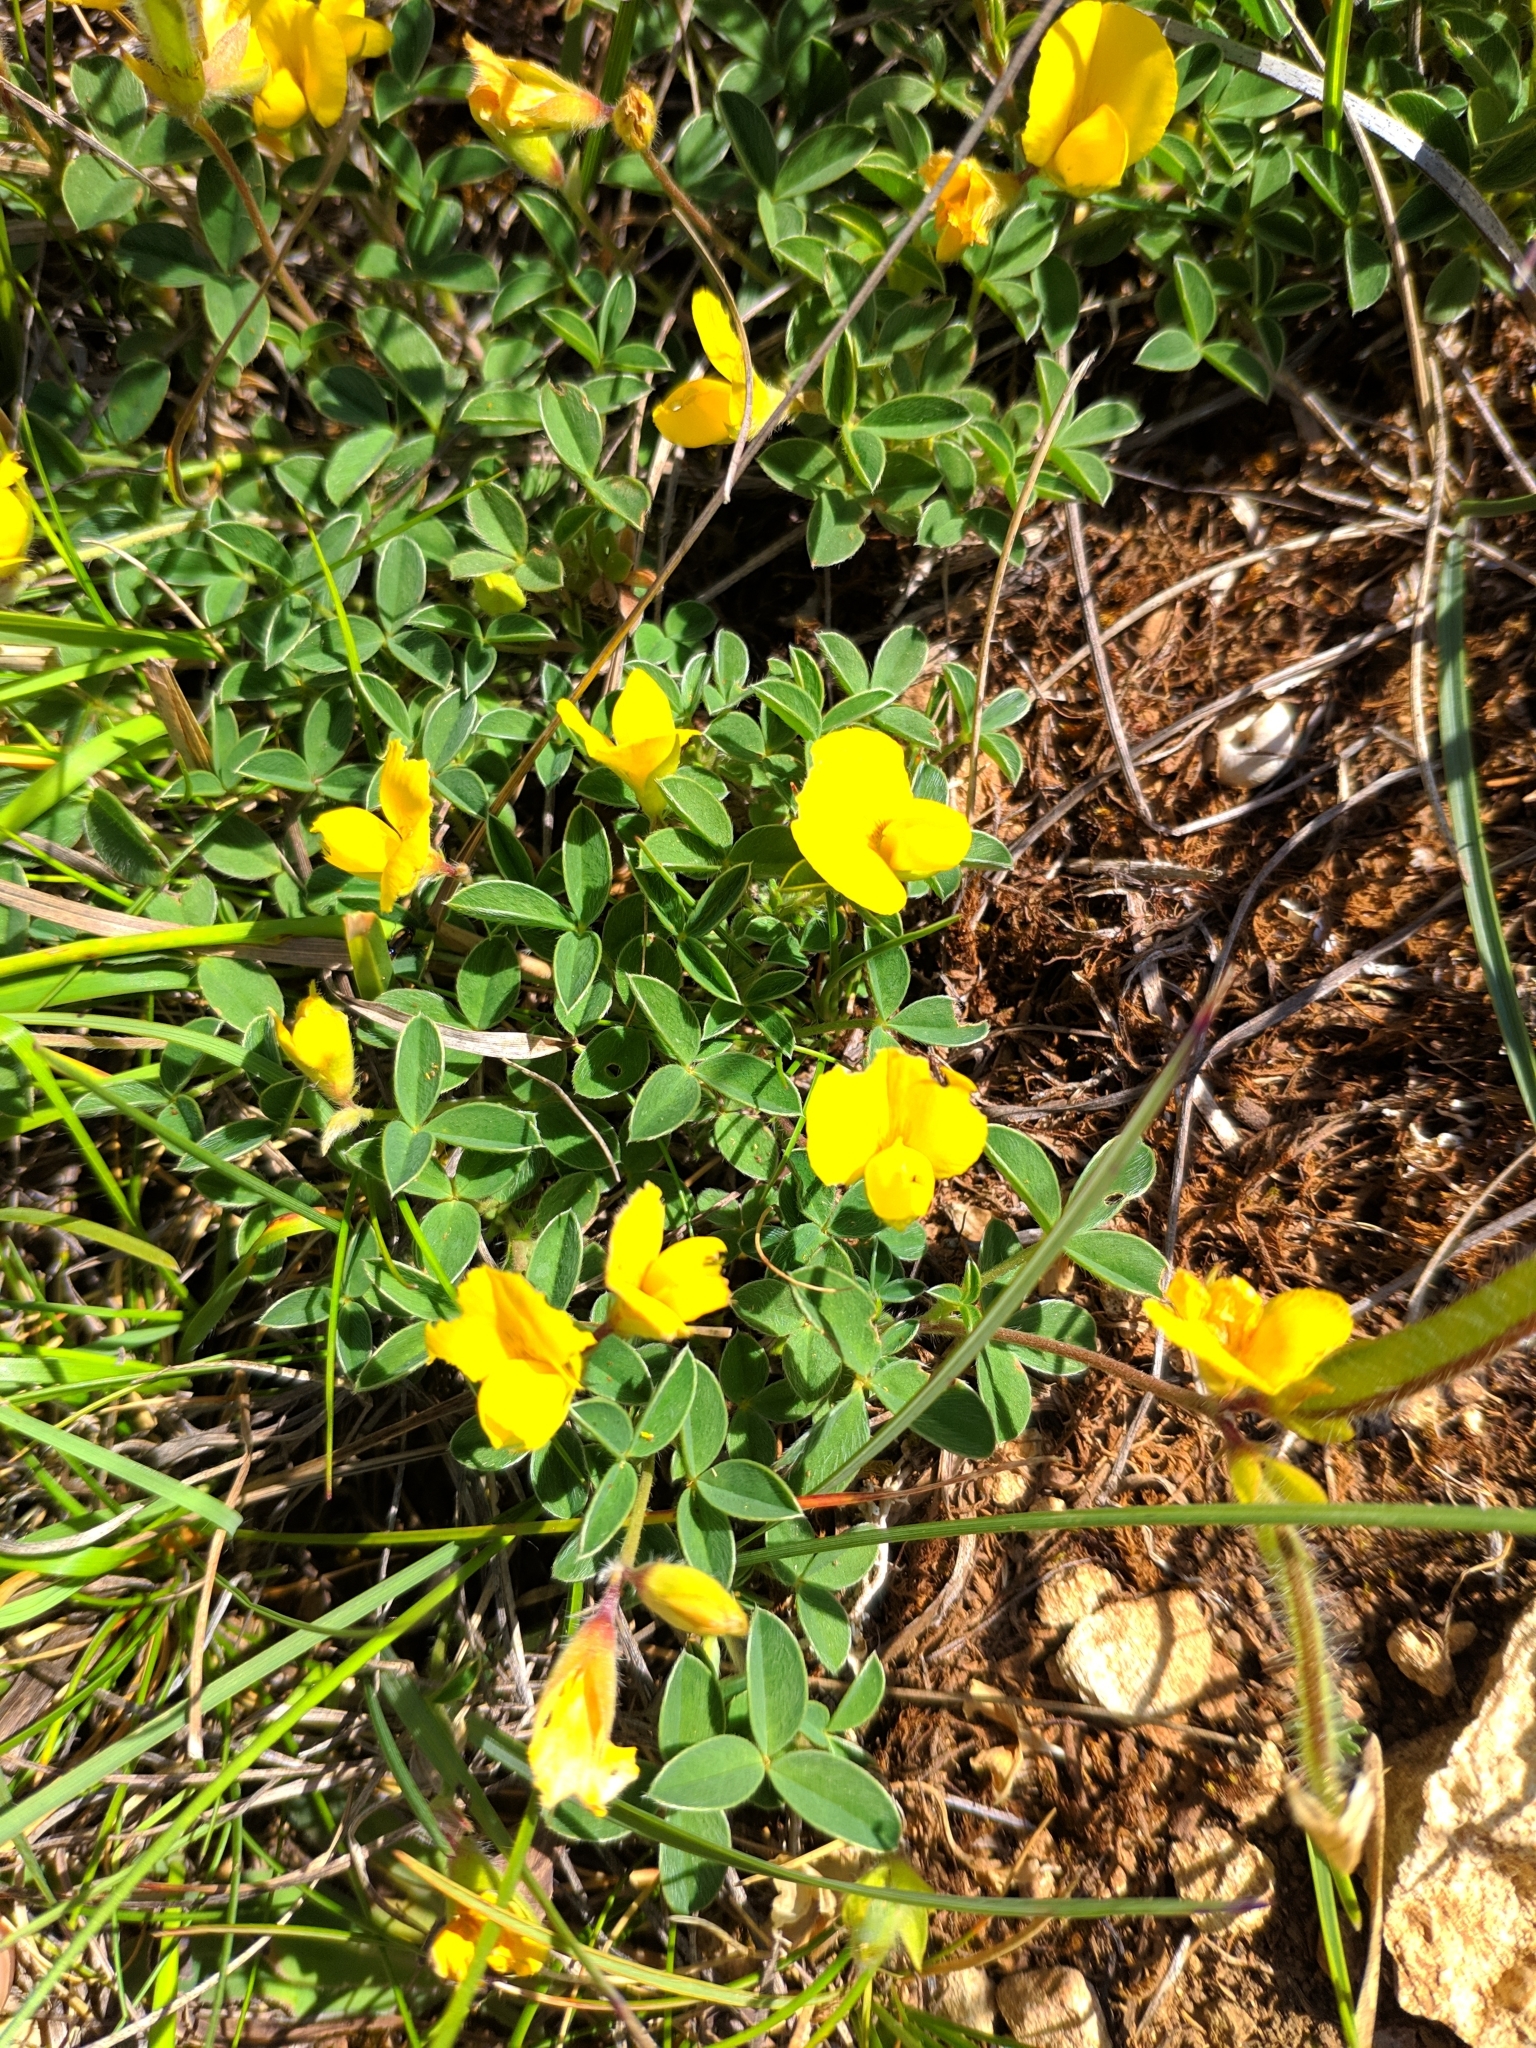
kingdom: Plantae
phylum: Tracheophyta
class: Magnoliopsida
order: Fabales
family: Fabaceae
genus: Argyrolobium
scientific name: Argyrolobium zanonii
